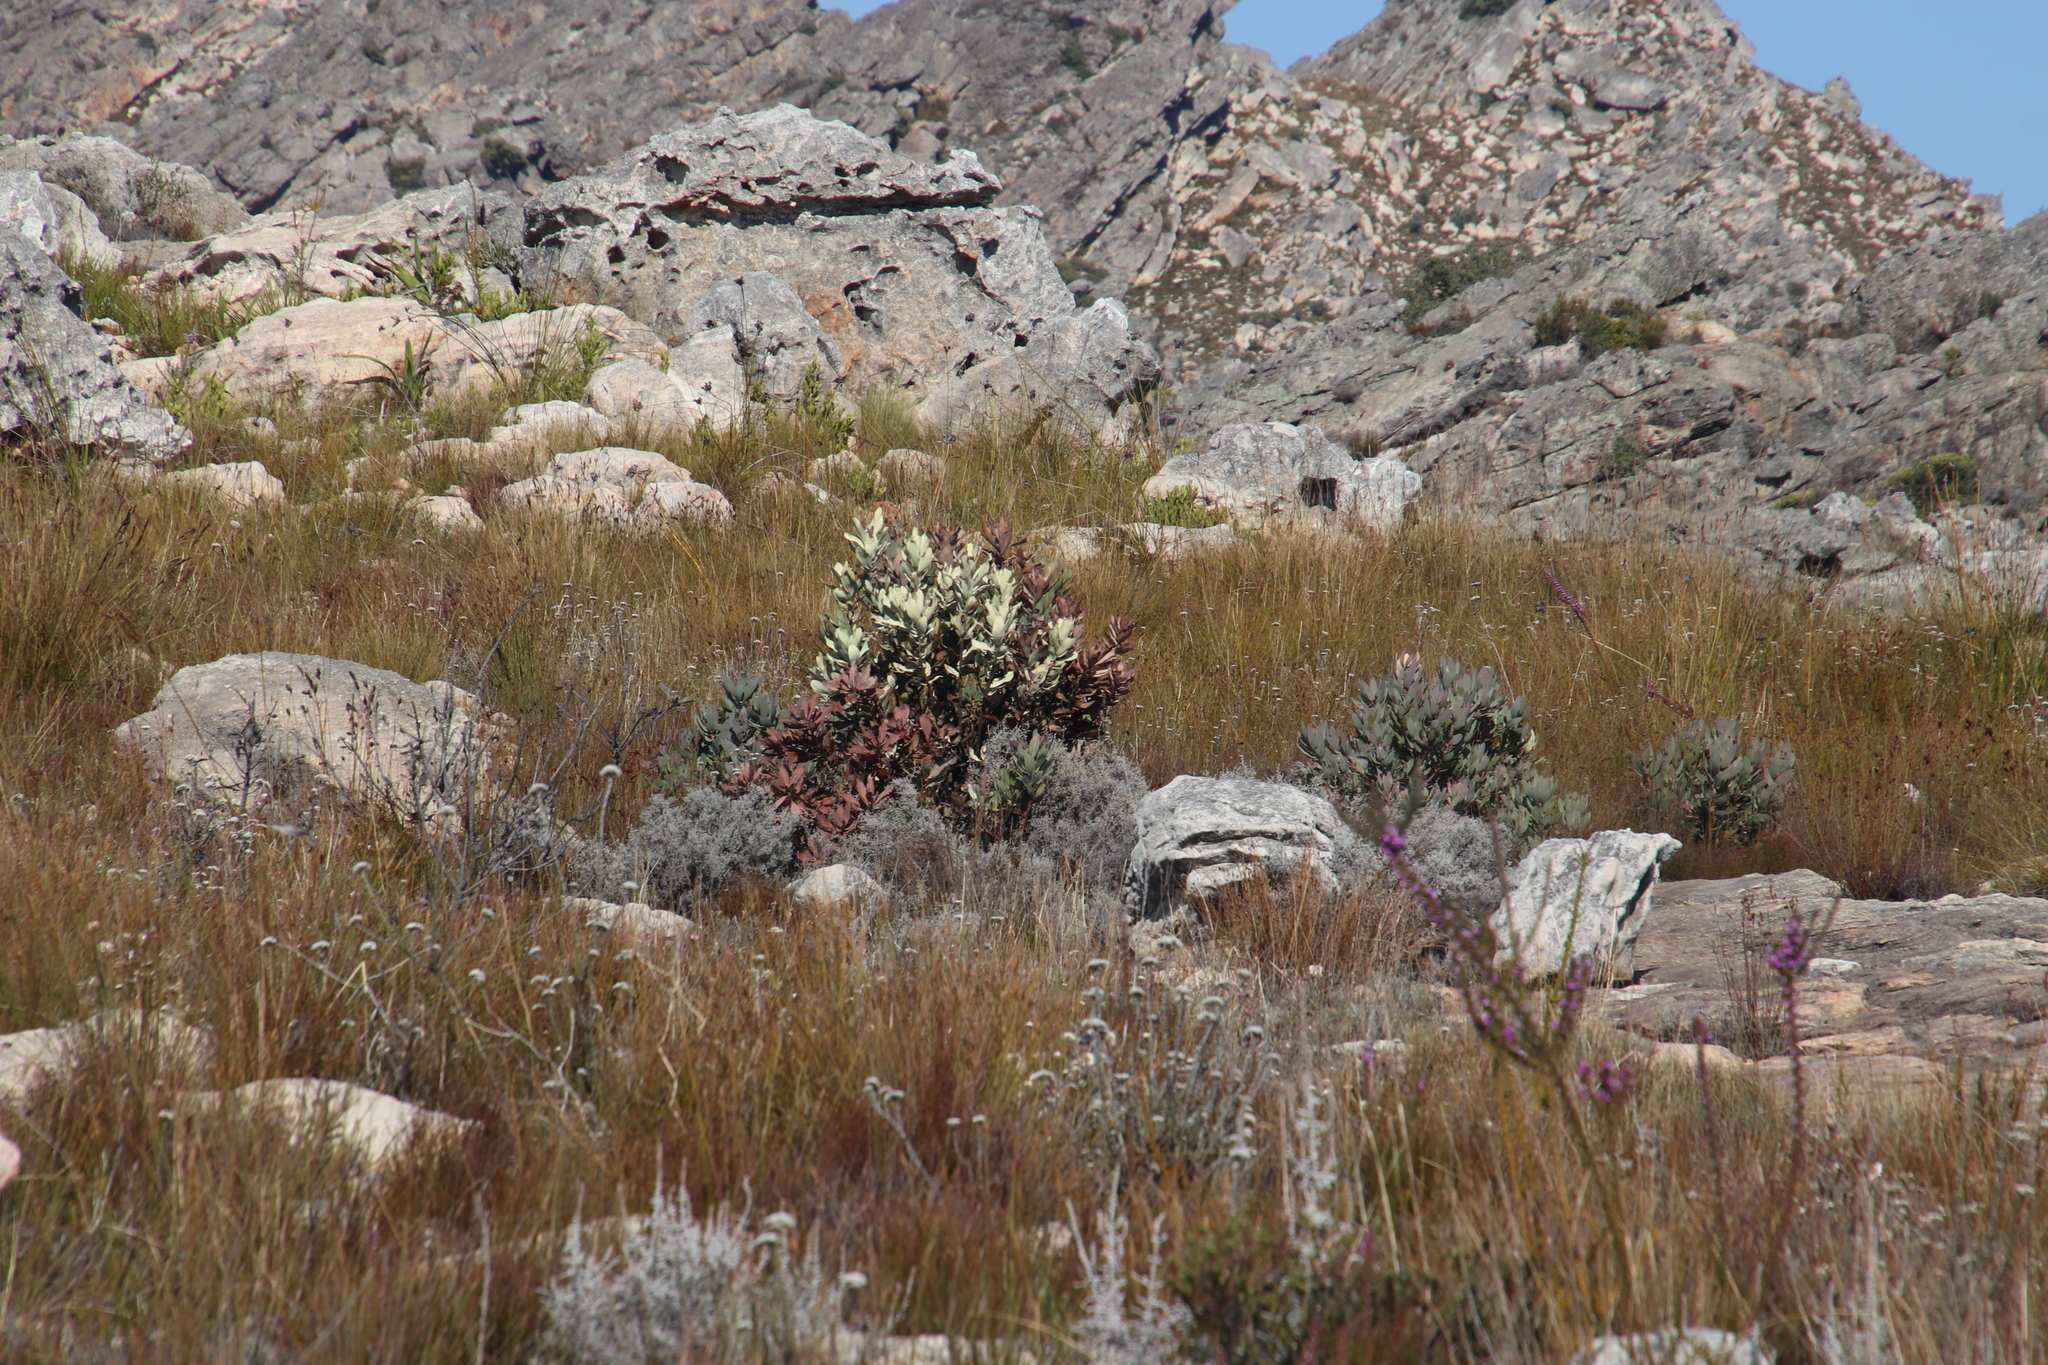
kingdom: Plantae
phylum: Tracheophyta
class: Magnoliopsida
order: Proteales
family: Proteaceae
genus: Protea
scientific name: Protea laurifolia
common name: Grey-leaf sugarbsh
